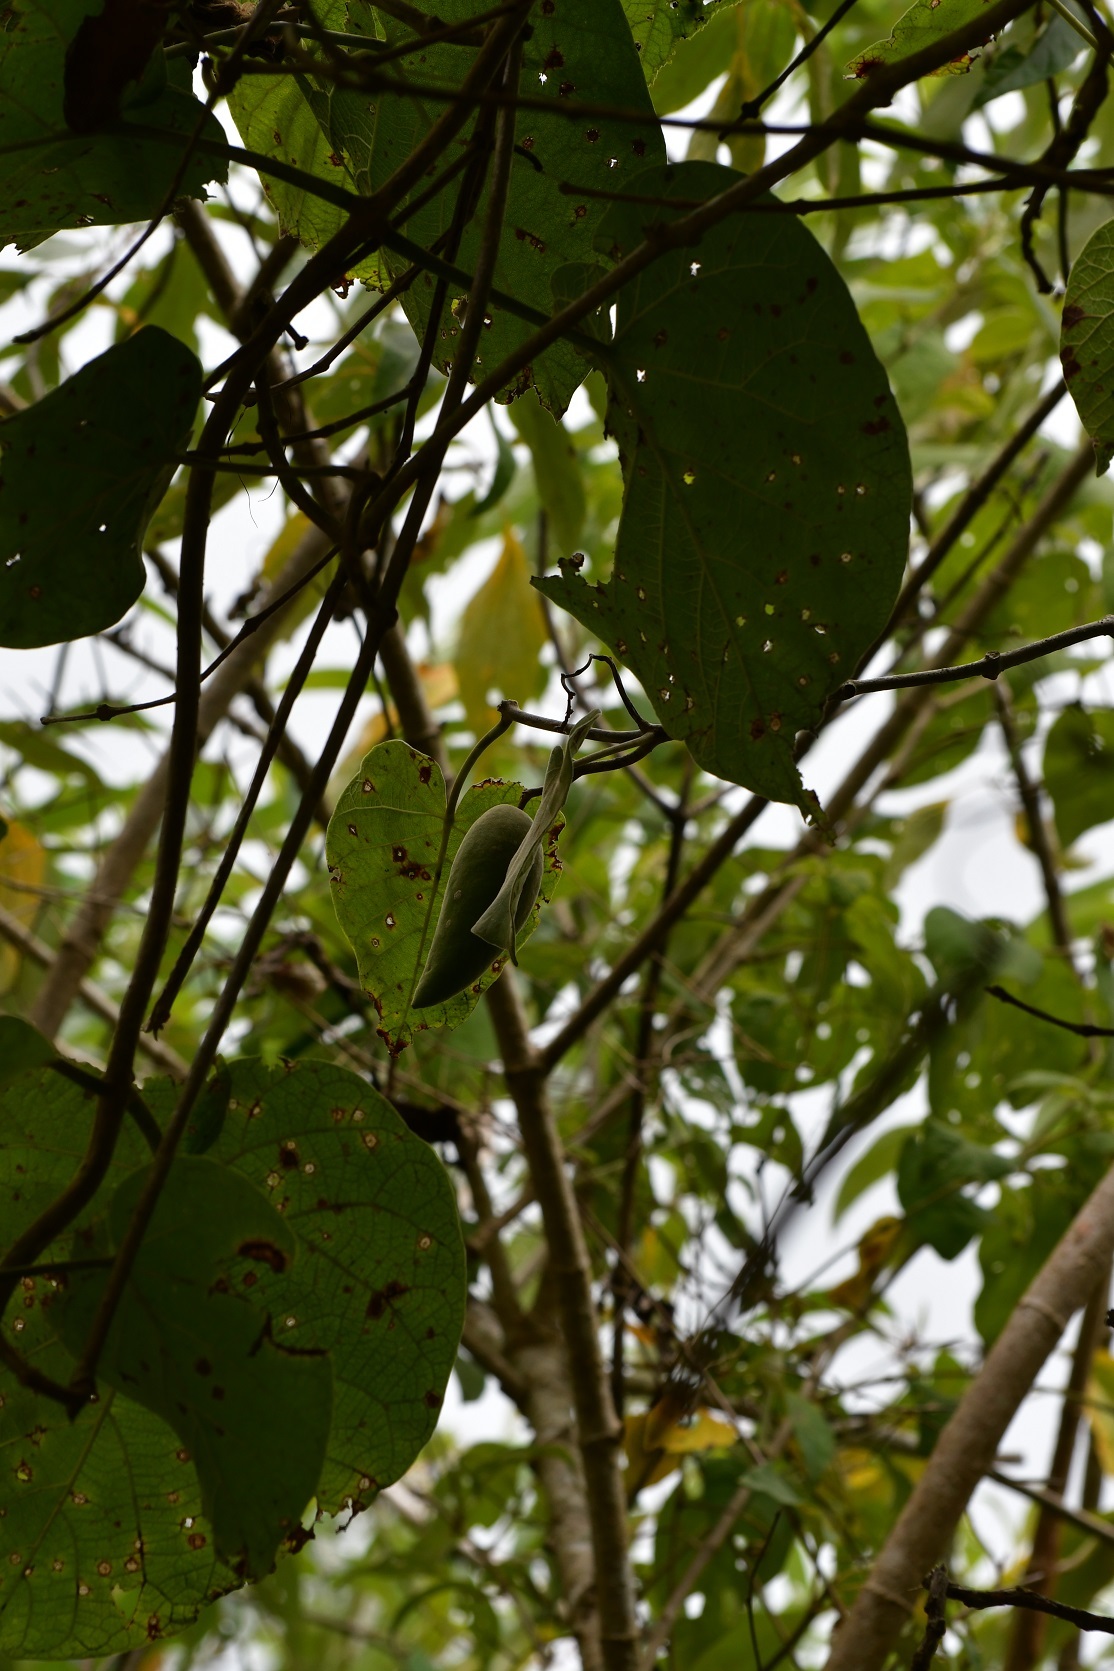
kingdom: Plantae
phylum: Tracheophyta
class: Magnoliopsida
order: Gentianales
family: Apocynaceae
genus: Ruehssia
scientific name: Ruehssia mexicana
